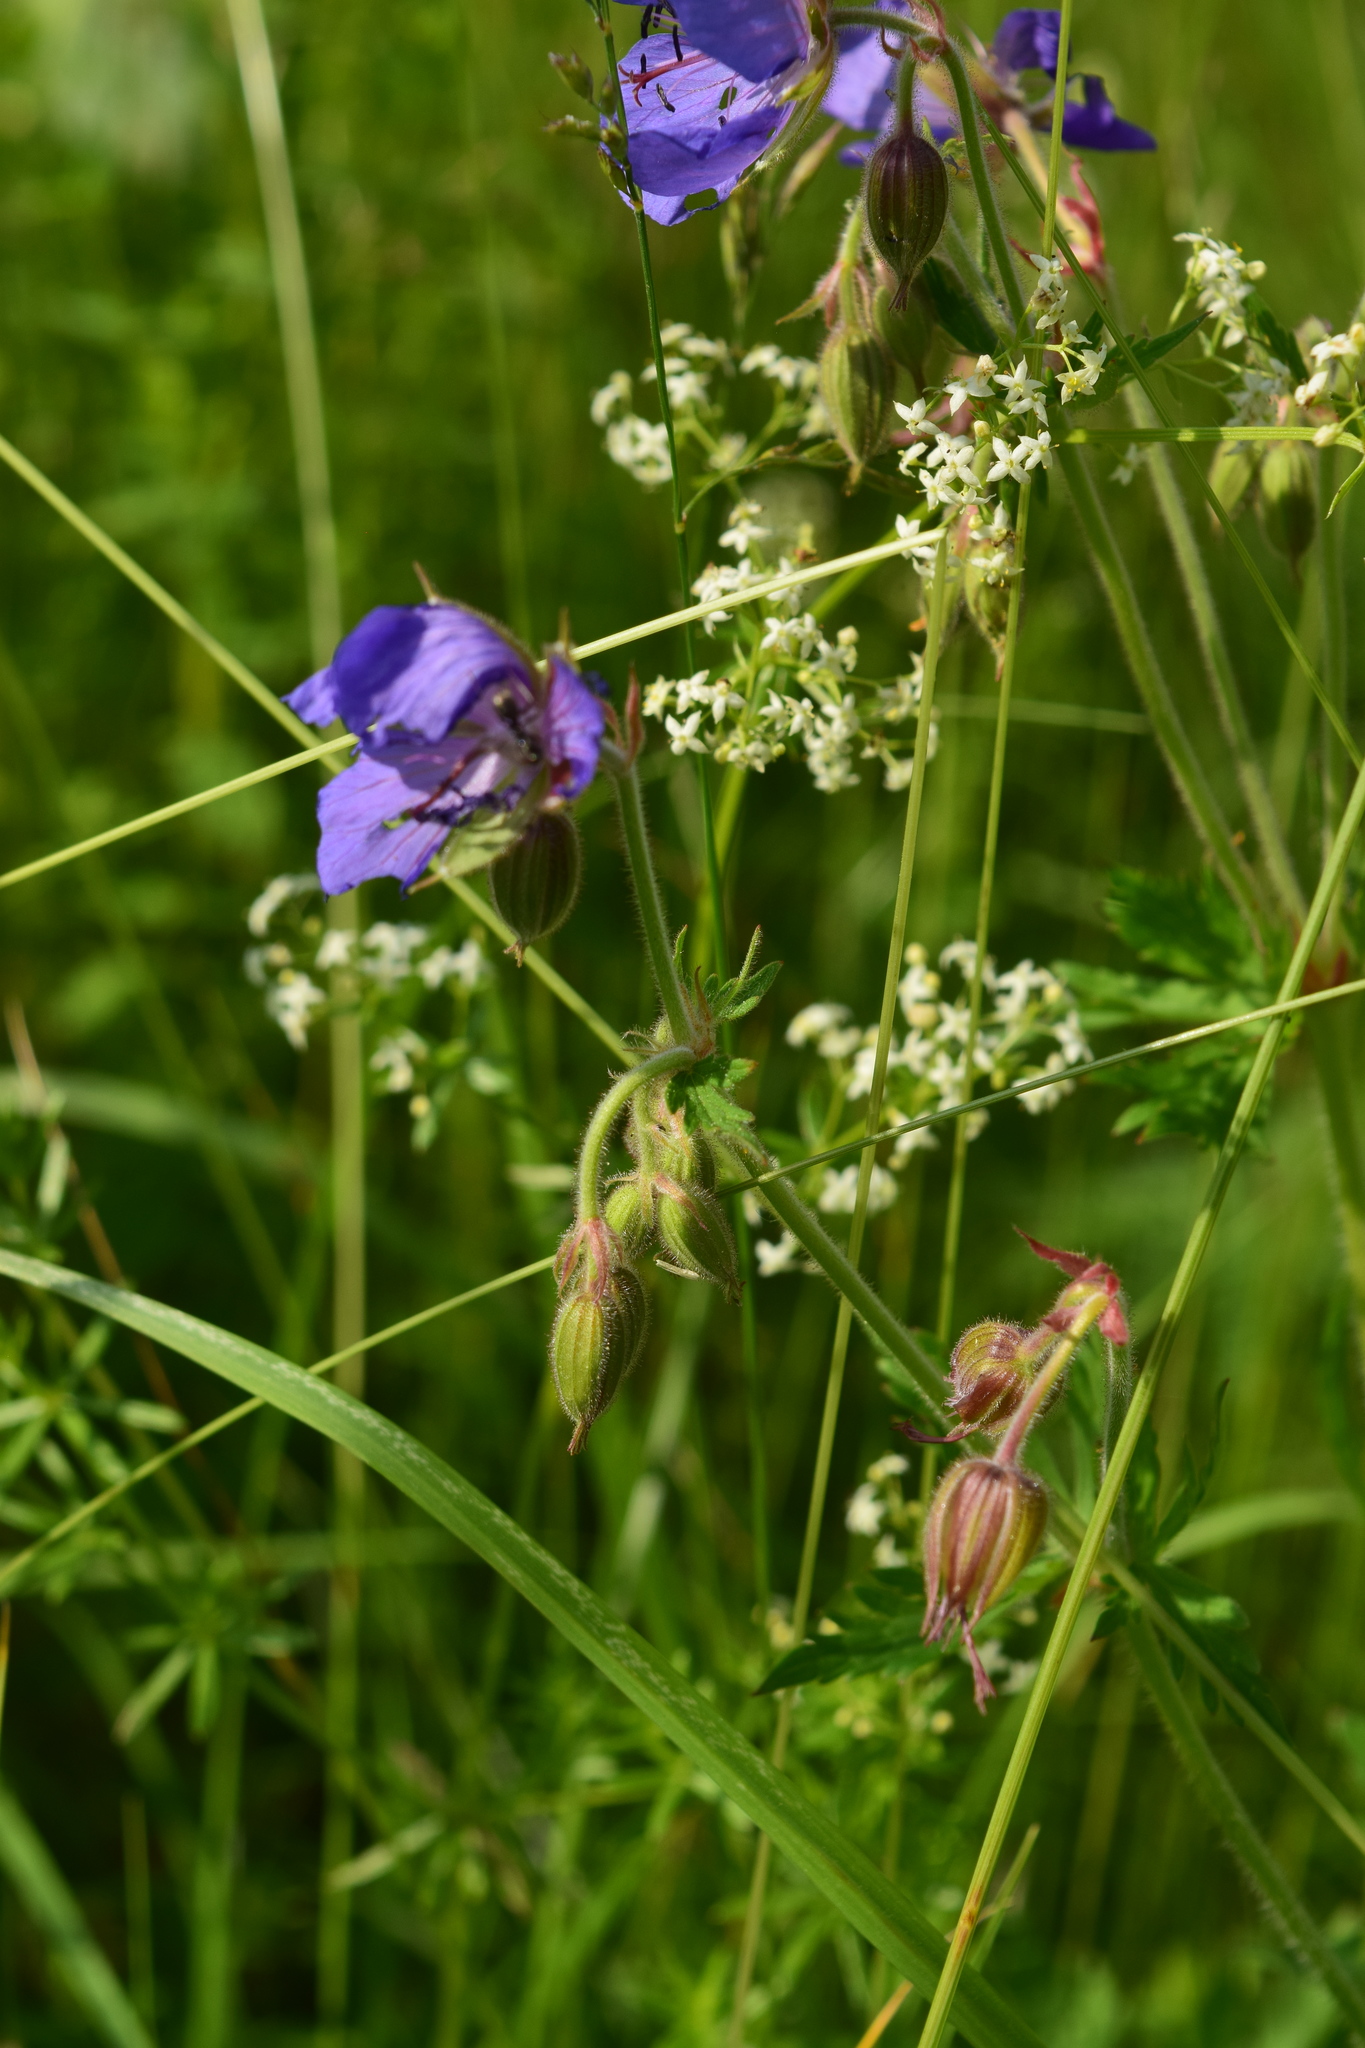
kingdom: Plantae
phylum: Tracheophyta
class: Magnoliopsida
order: Geraniales
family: Geraniaceae
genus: Geranium
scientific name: Geranium pratense
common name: Meadow crane's-bill
